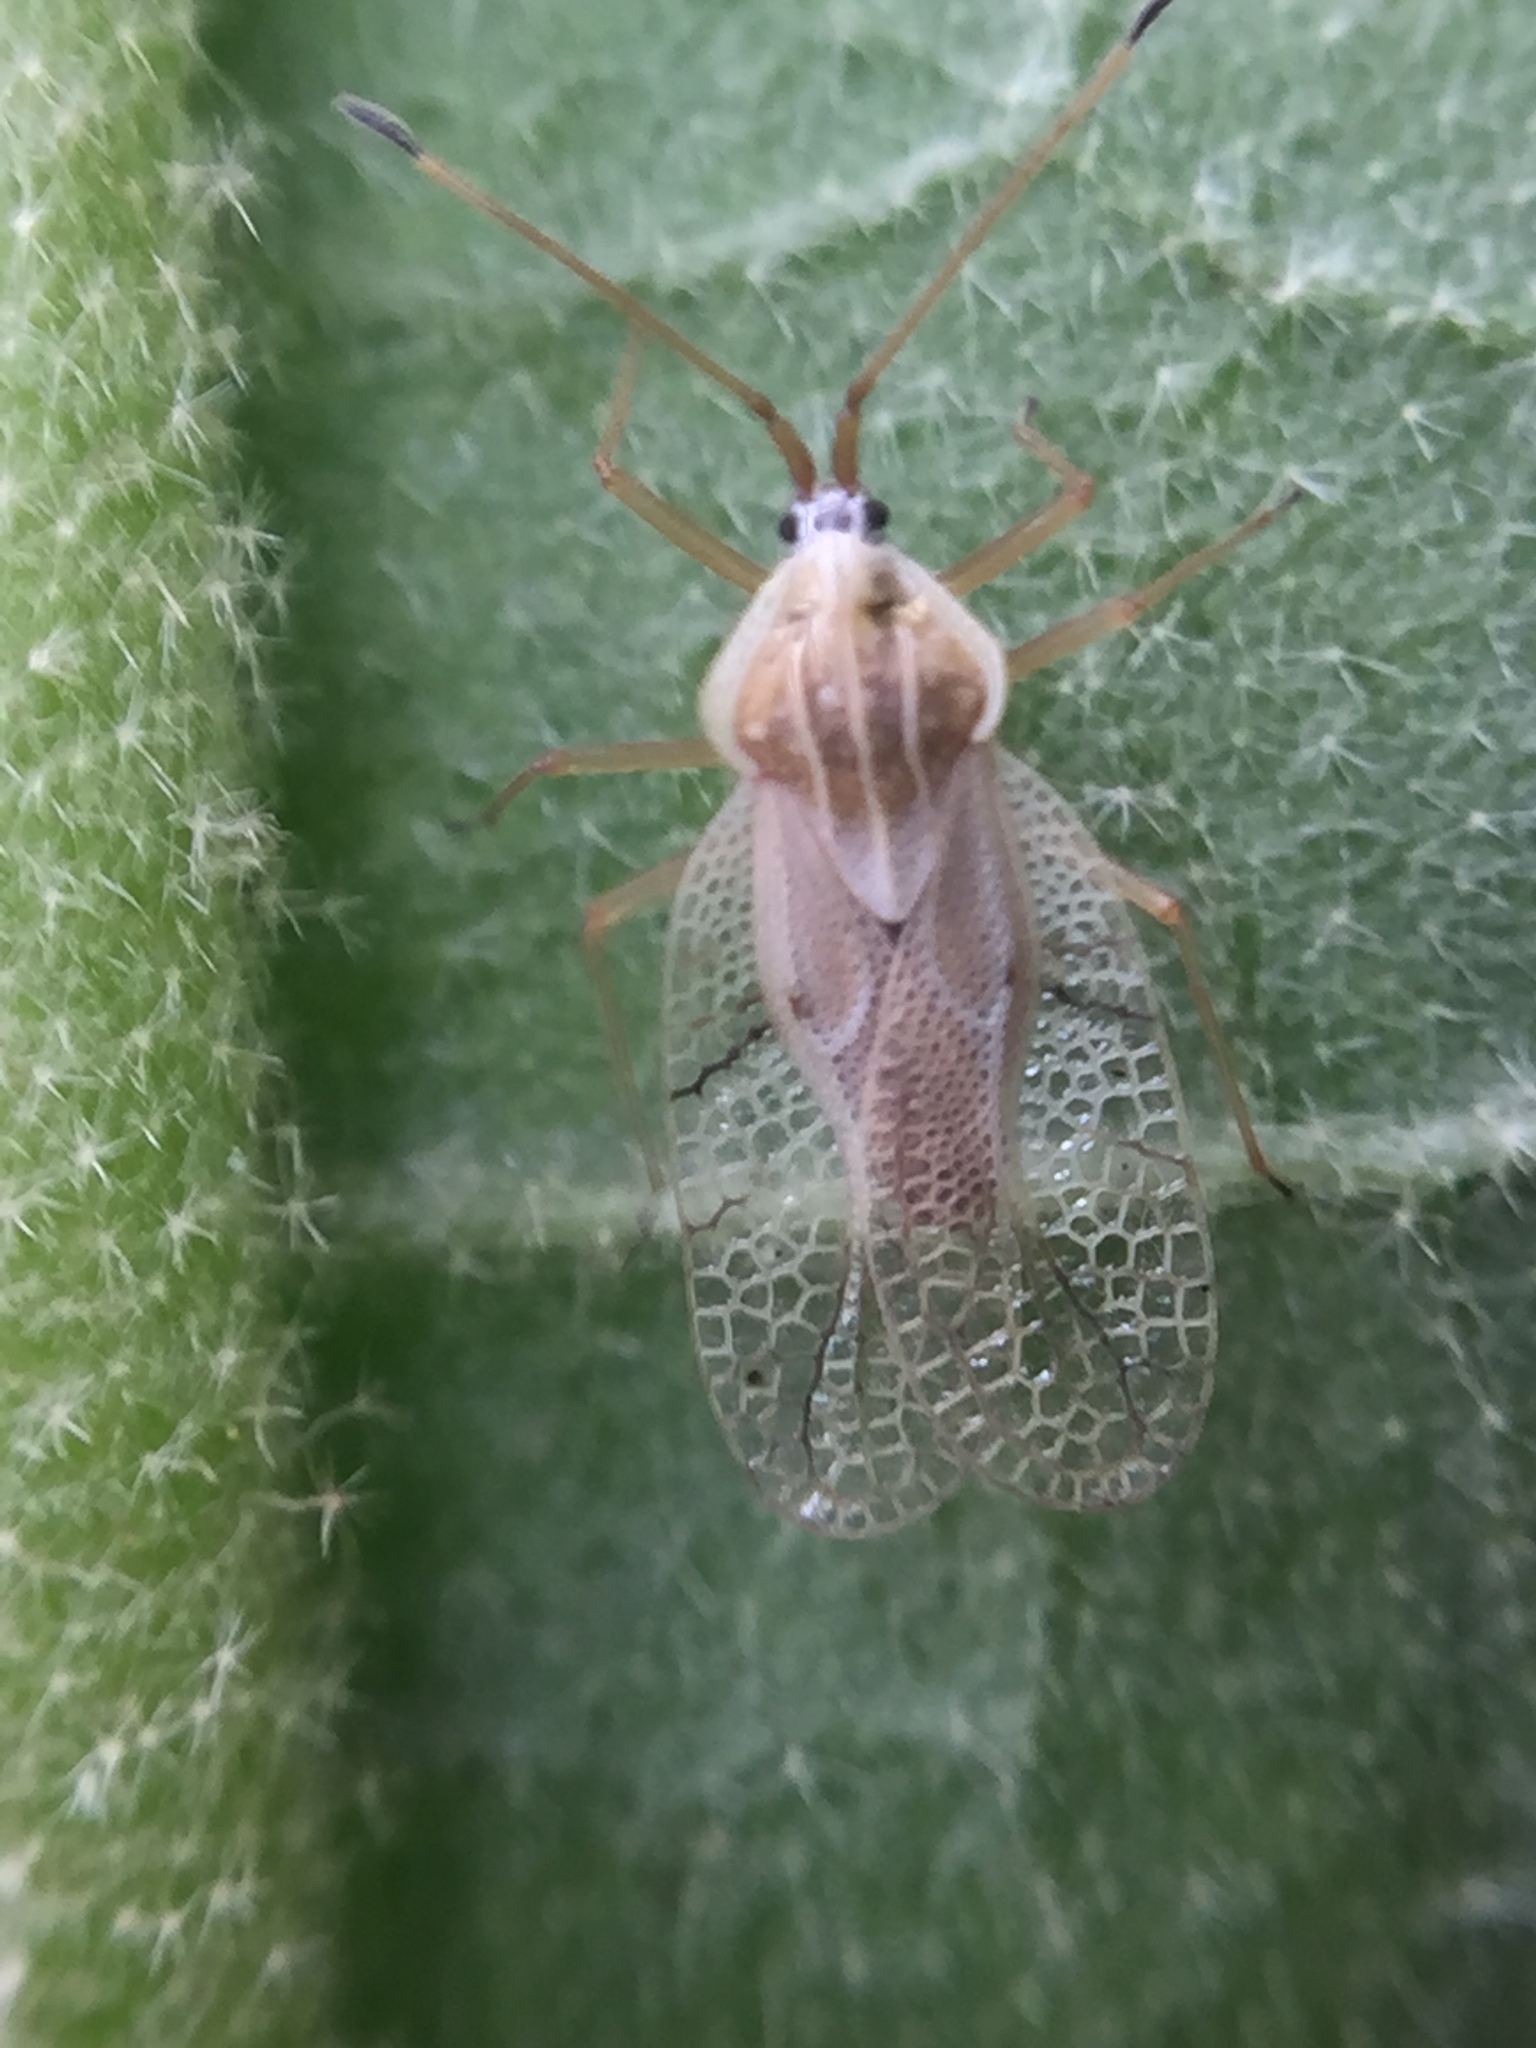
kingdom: Animalia
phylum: Arthropoda
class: Insecta
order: Hemiptera
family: Tingidae
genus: Gargaphia
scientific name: Gargaphia decoris
